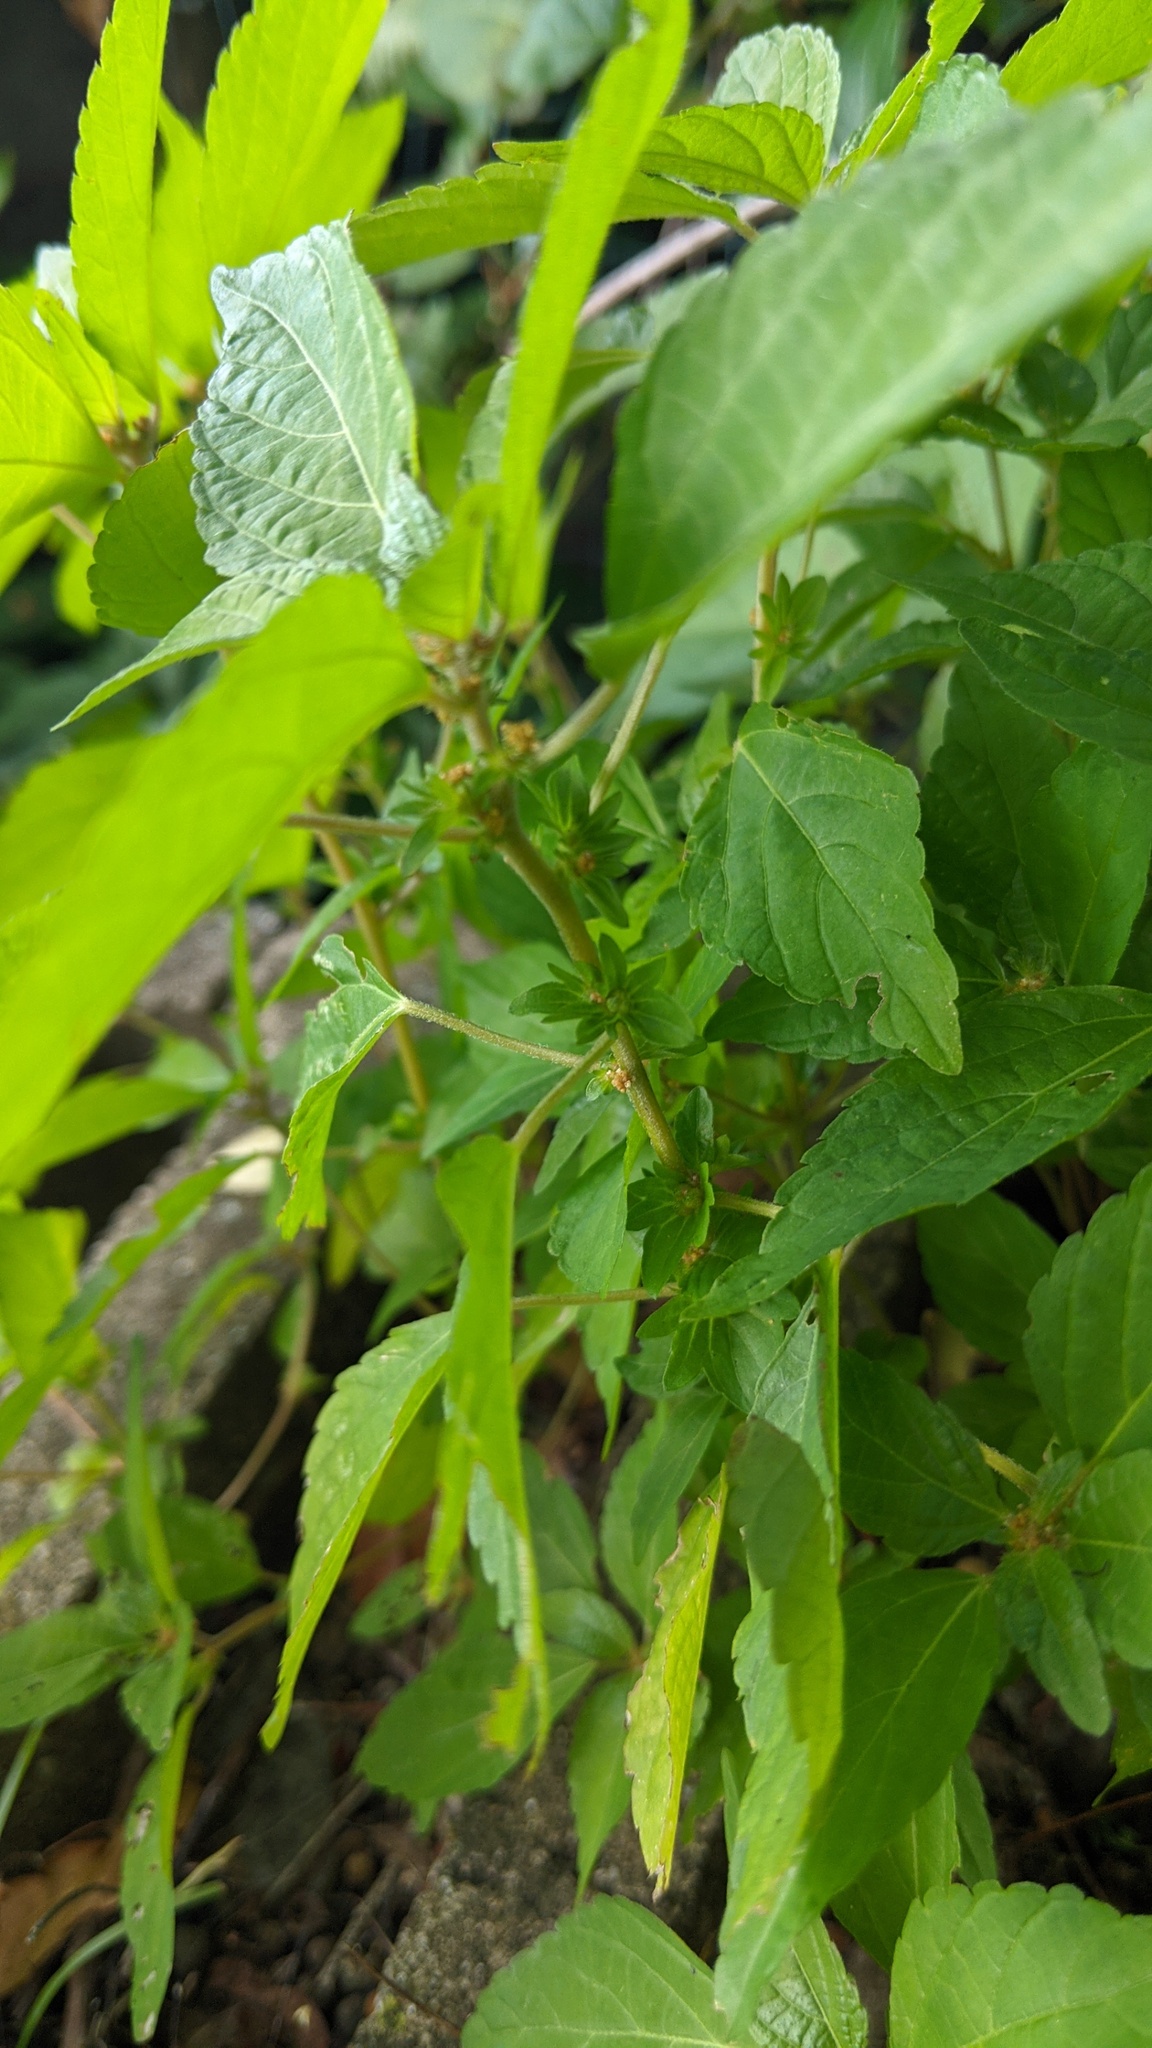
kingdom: Plantae
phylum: Tracheophyta
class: Magnoliopsida
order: Malpighiales
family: Euphorbiaceae
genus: Acalypha
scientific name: Acalypha rhomboidea
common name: Rhombic copperleaf
